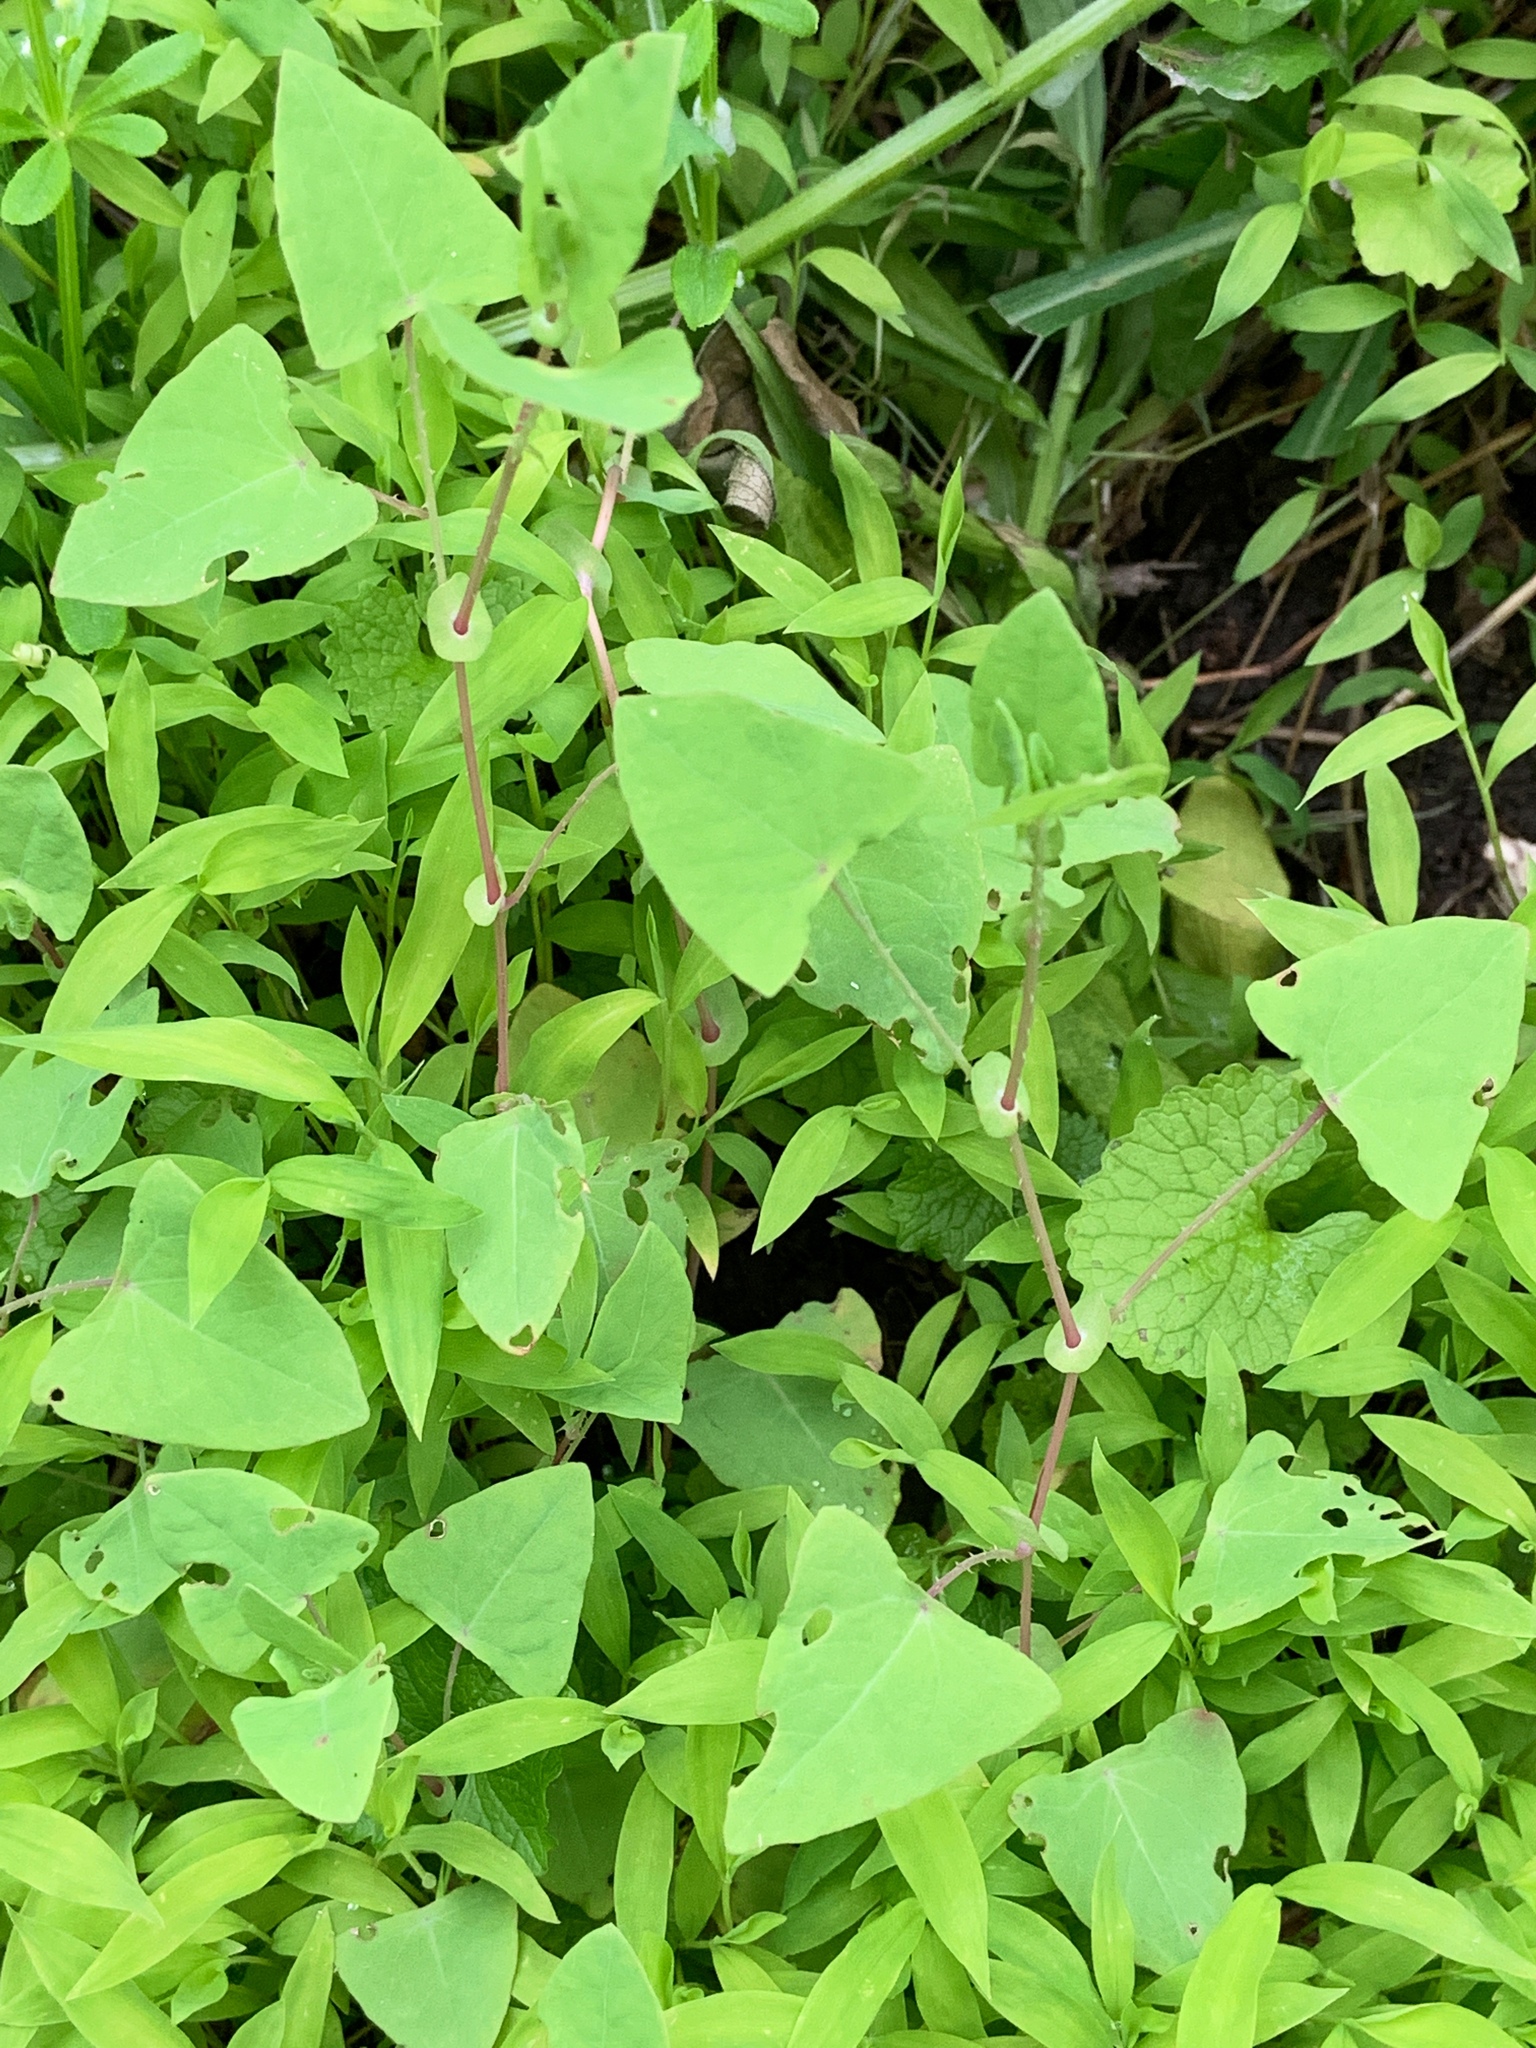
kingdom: Plantae
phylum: Tracheophyta
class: Magnoliopsida
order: Caryophyllales
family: Polygonaceae
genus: Persicaria
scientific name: Persicaria perfoliata
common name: Asiatic tearthumb
